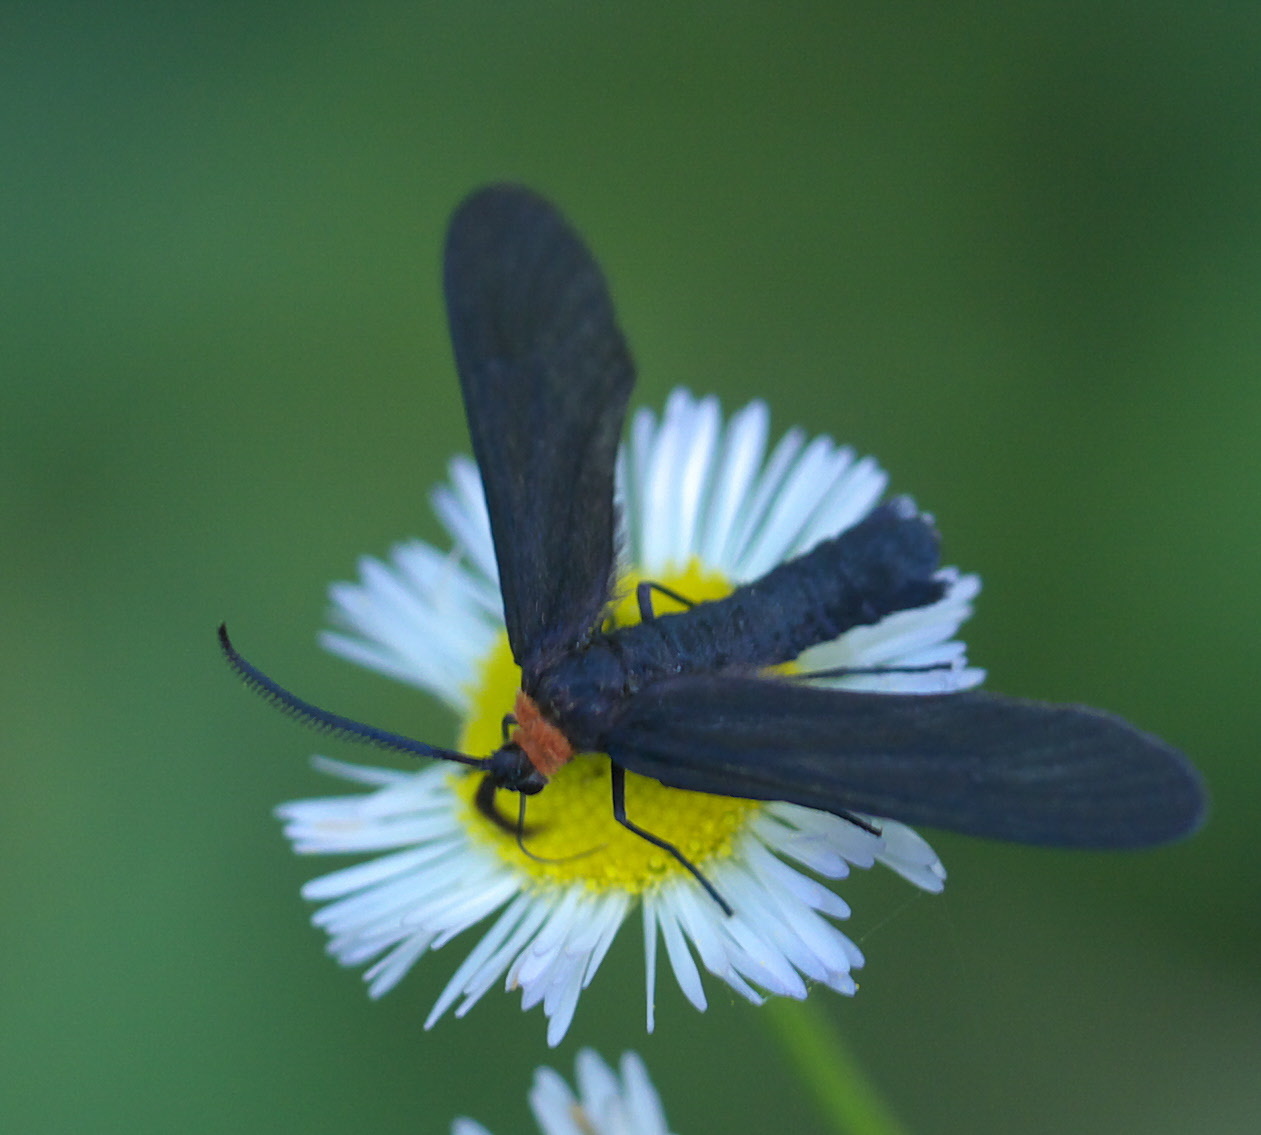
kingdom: Animalia
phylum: Arthropoda
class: Insecta
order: Lepidoptera
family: Zygaenidae
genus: Harrisina
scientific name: Harrisina americana
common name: Grapeleaf skeletonizer moth
